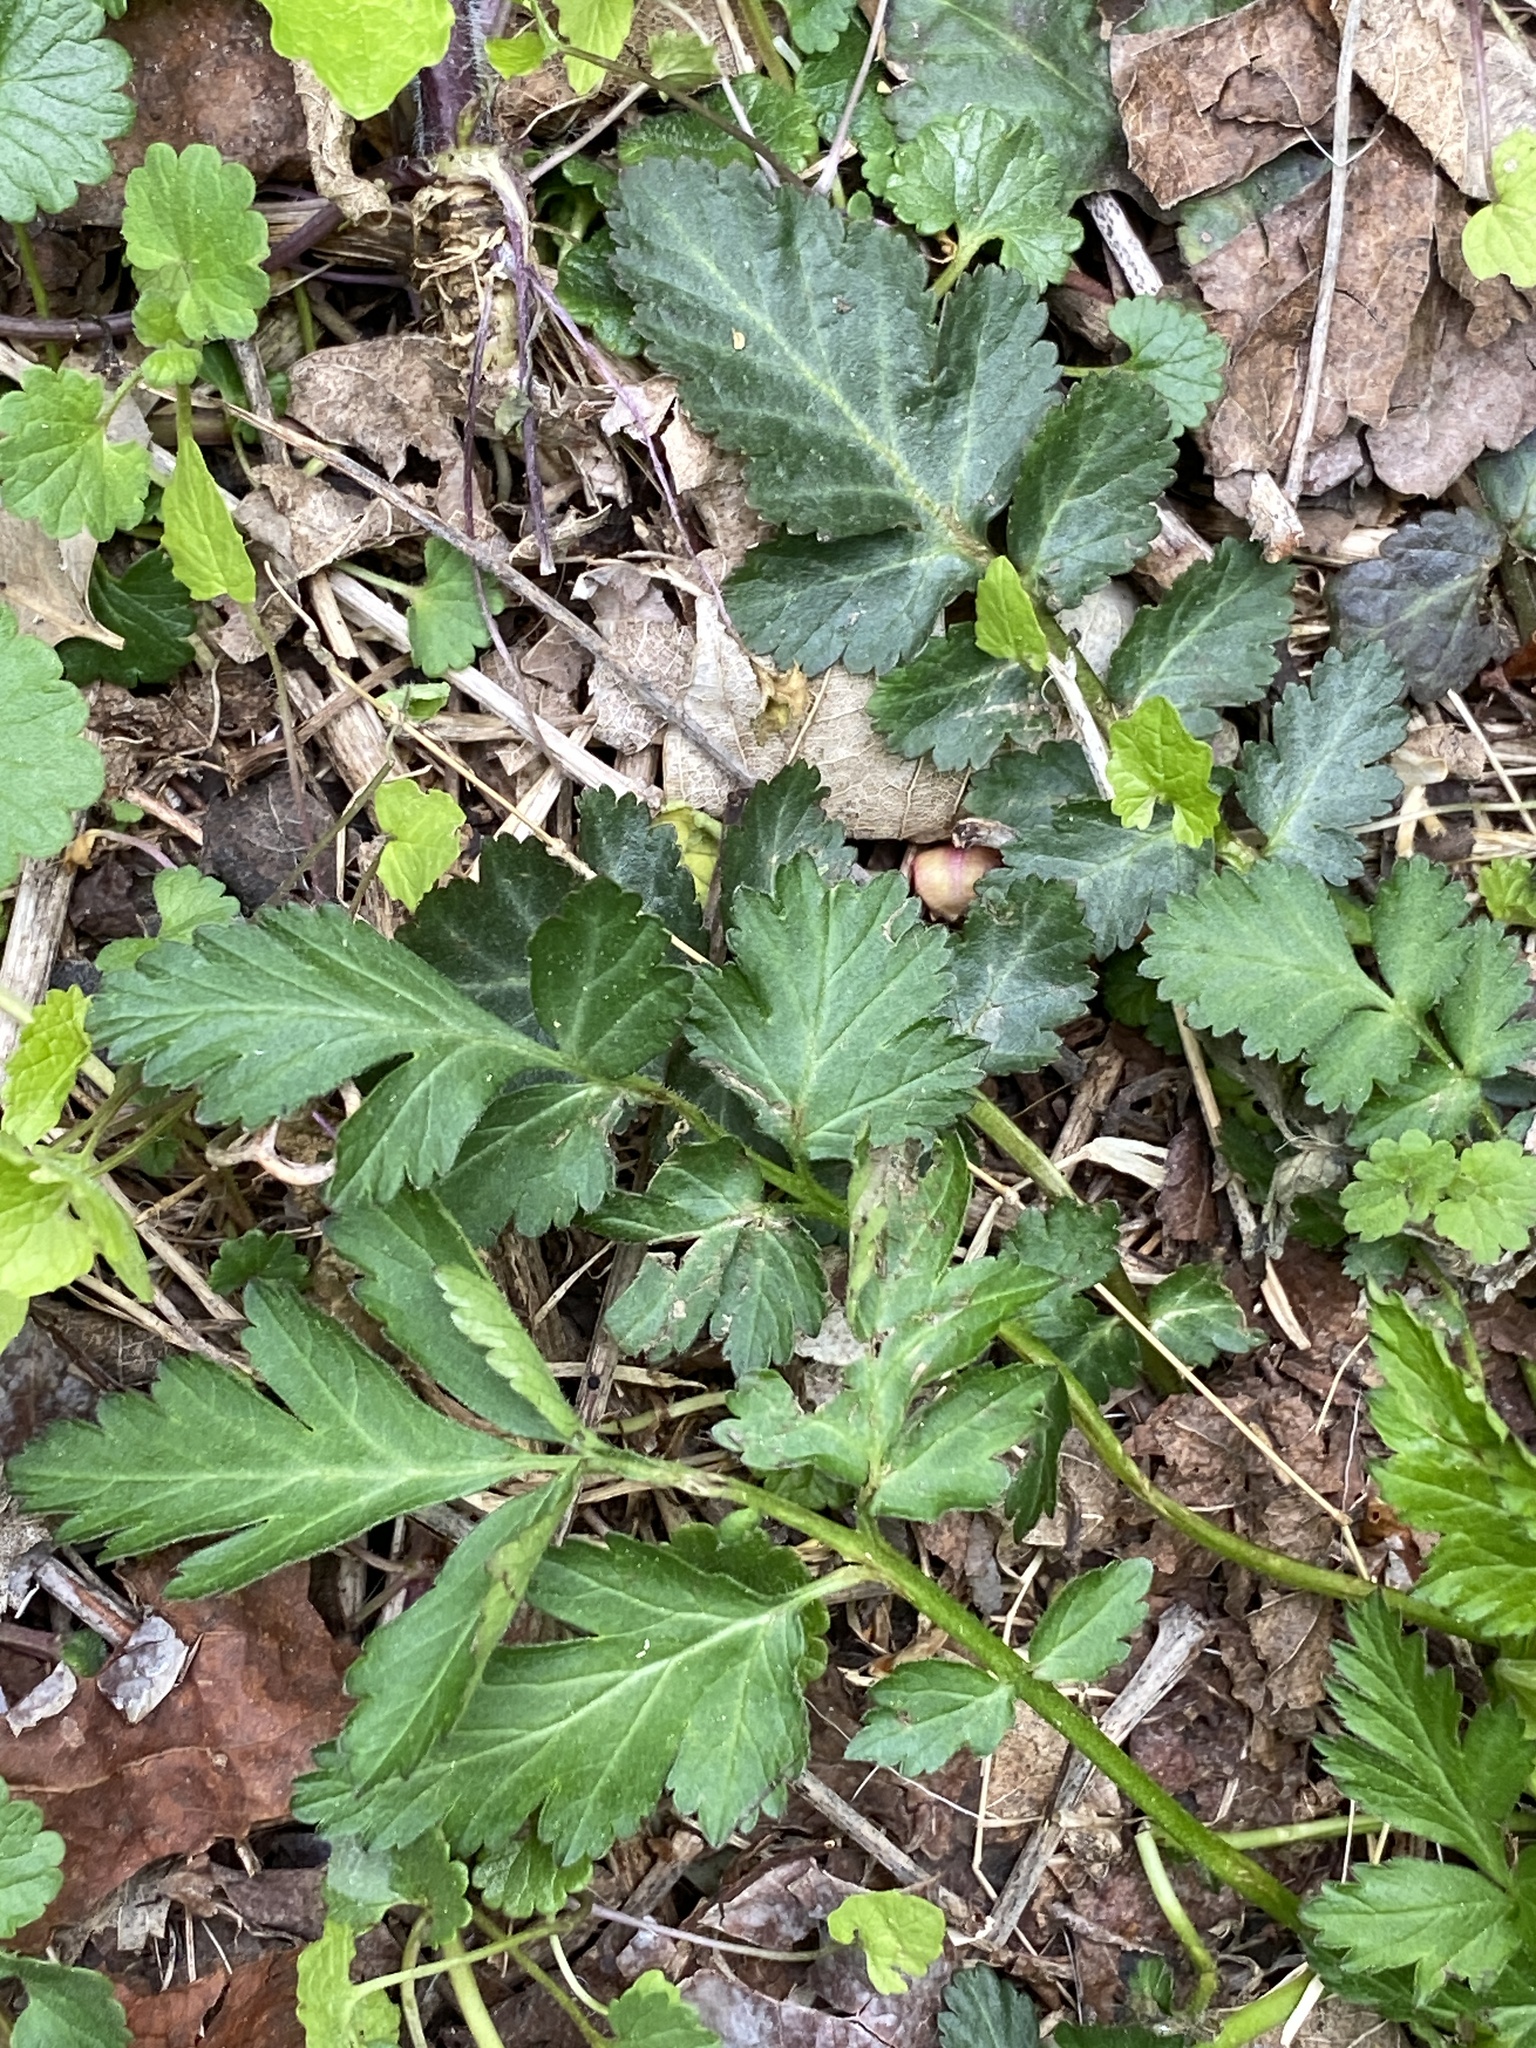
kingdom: Plantae
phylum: Tracheophyta
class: Magnoliopsida
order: Rosales
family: Rosaceae
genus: Geum
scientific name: Geum canadense
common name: White avens
